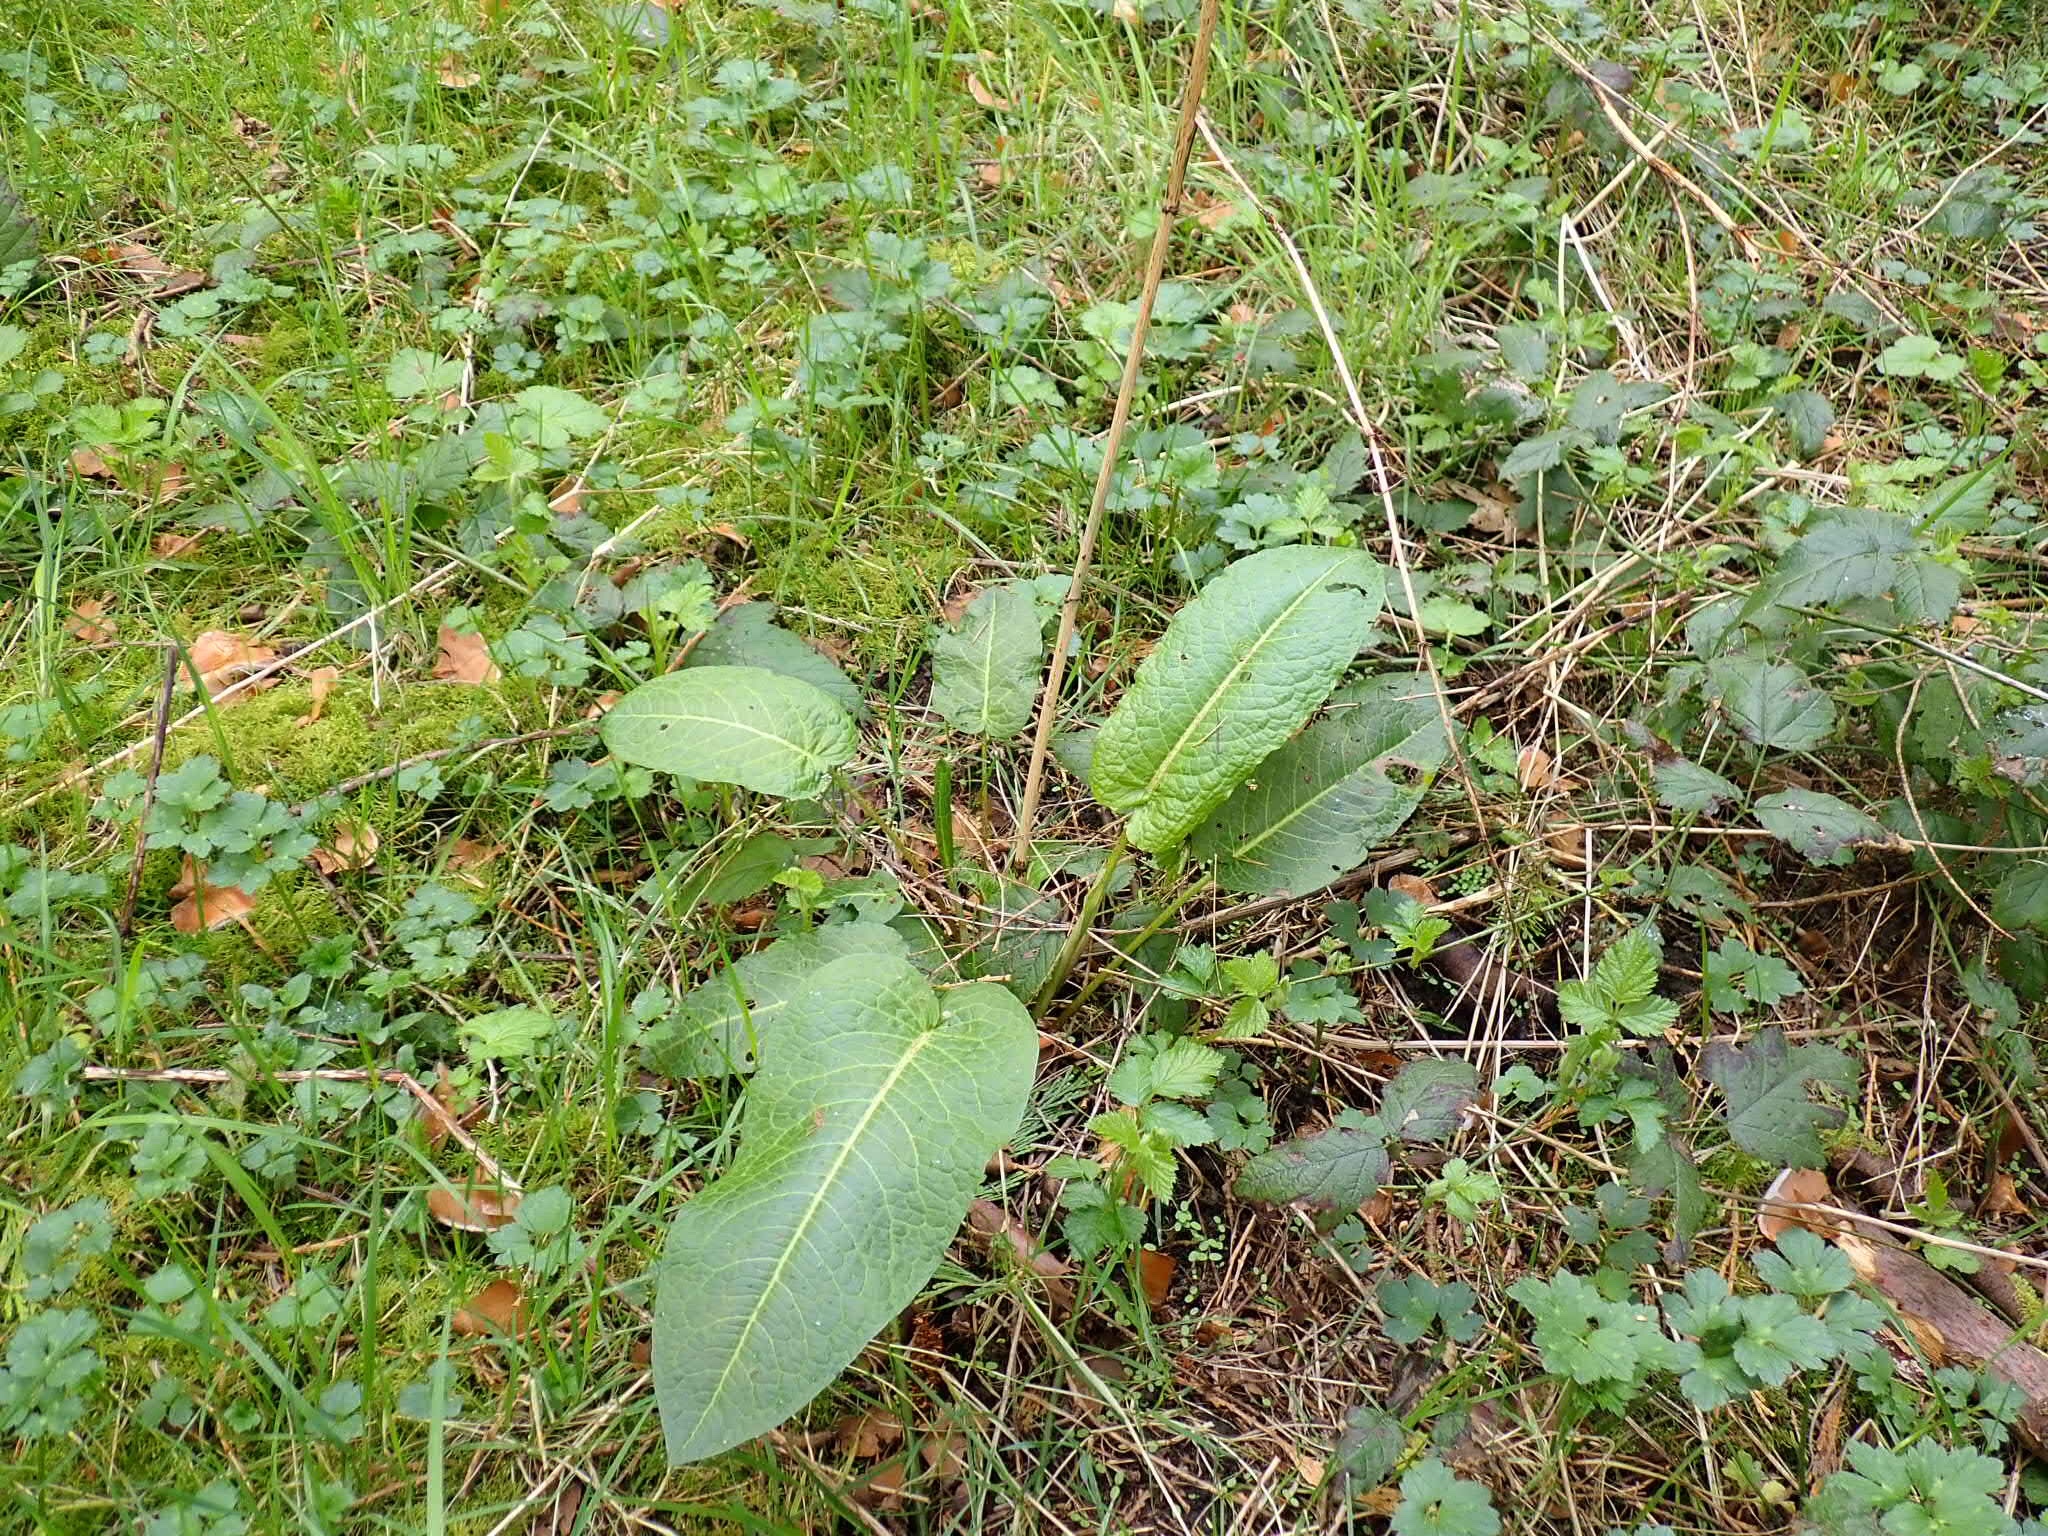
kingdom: Plantae
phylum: Tracheophyta
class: Magnoliopsida
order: Caryophyllales
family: Polygonaceae
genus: Rumex
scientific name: Rumex obtusifolius
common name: Bitter dock
